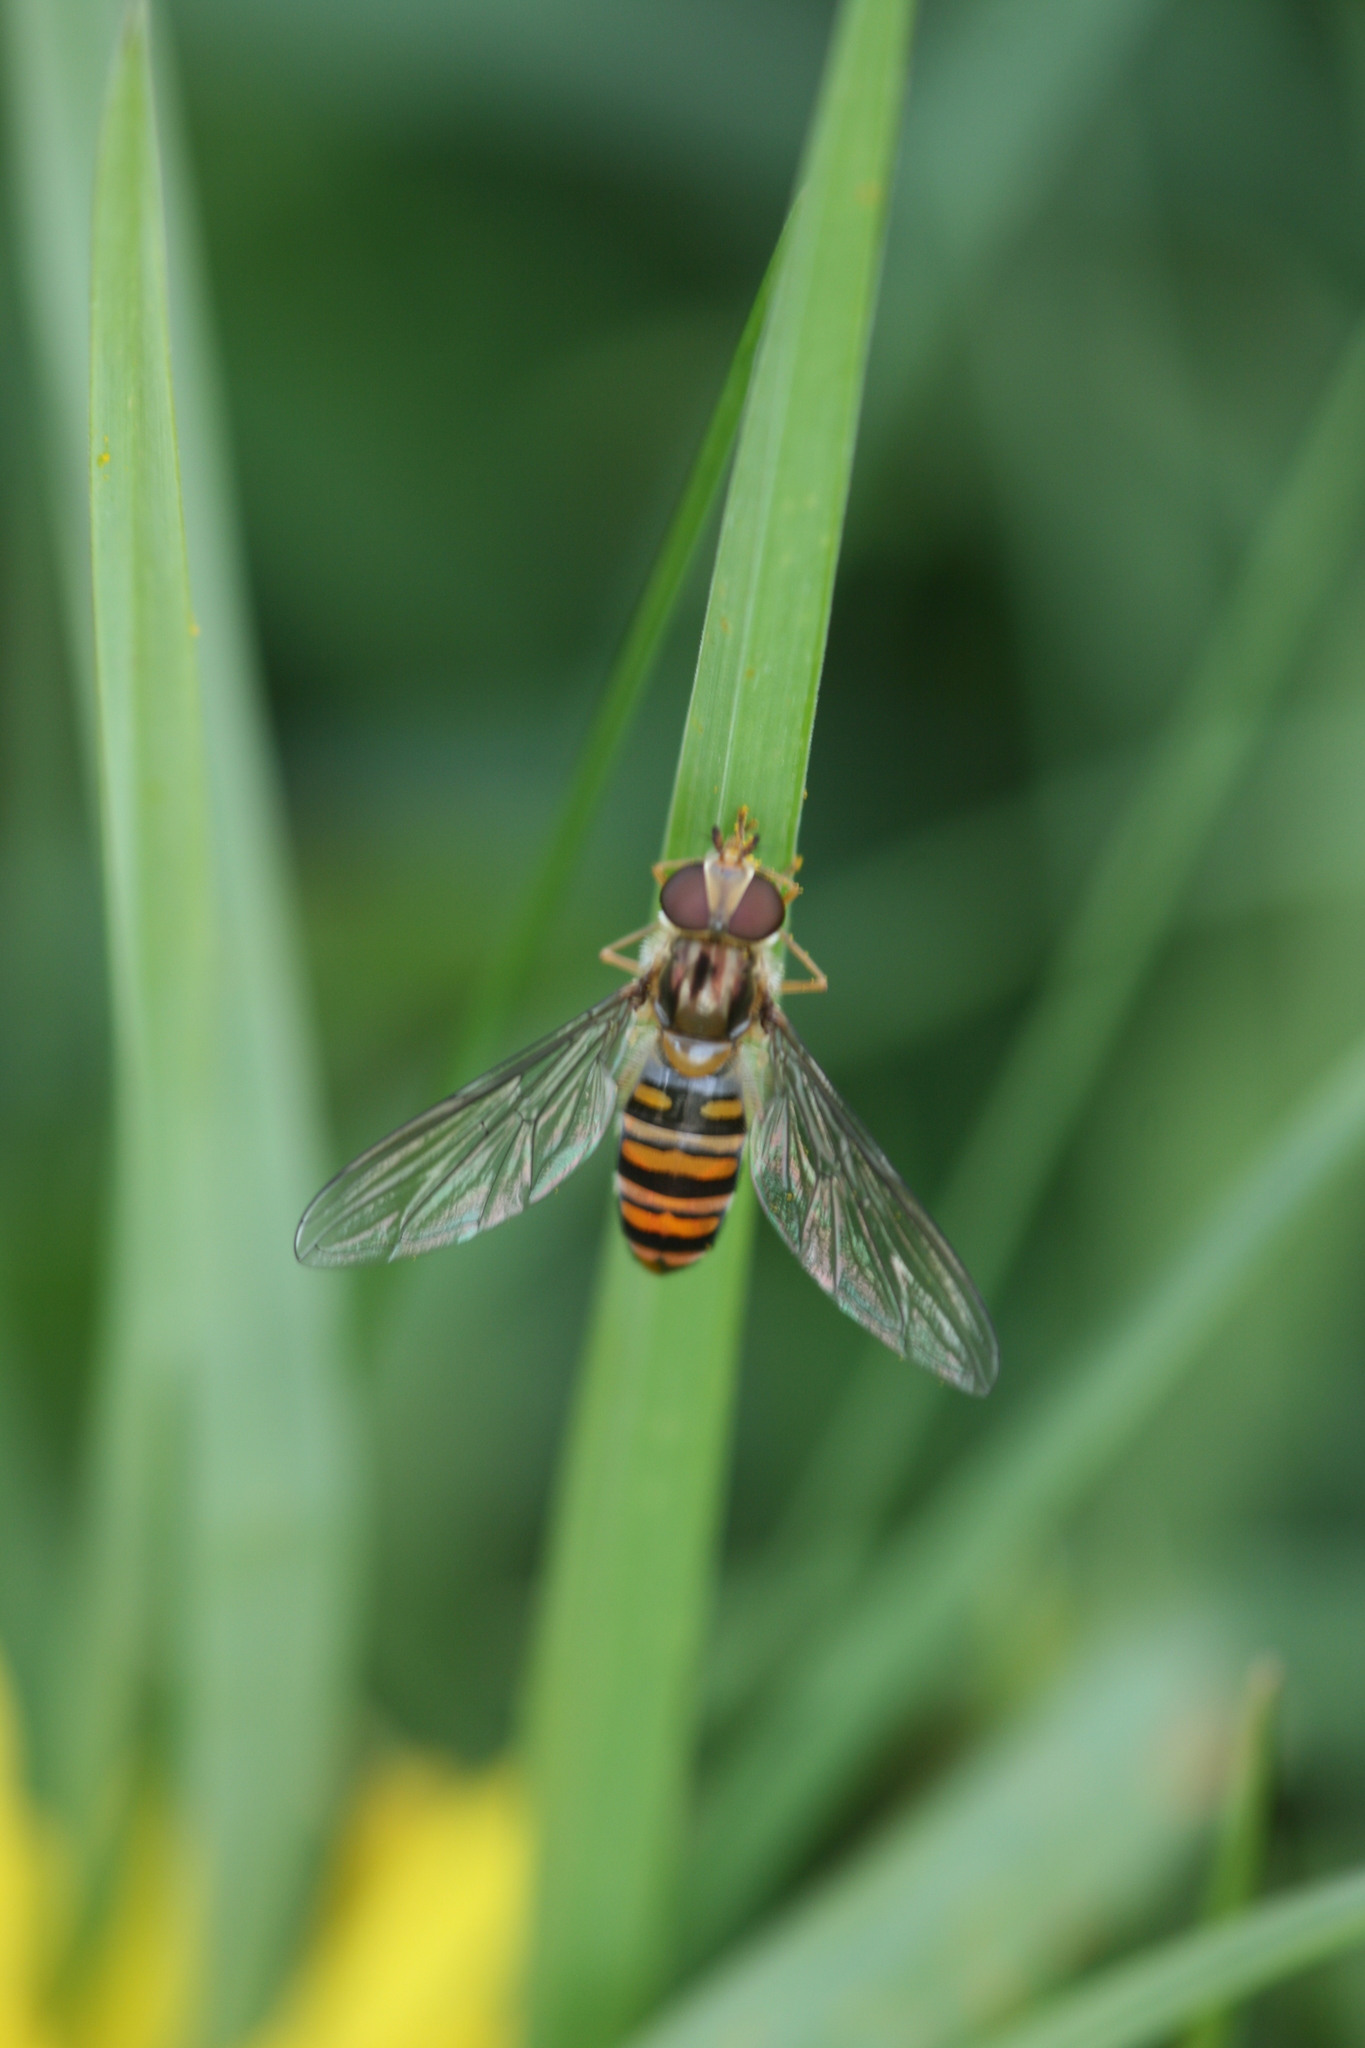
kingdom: Animalia
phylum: Arthropoda
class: Insecta
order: Diptera
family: Syrphidae
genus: Episyrphus
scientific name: Episyrphus balteatus
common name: Marmalade hoverfly
